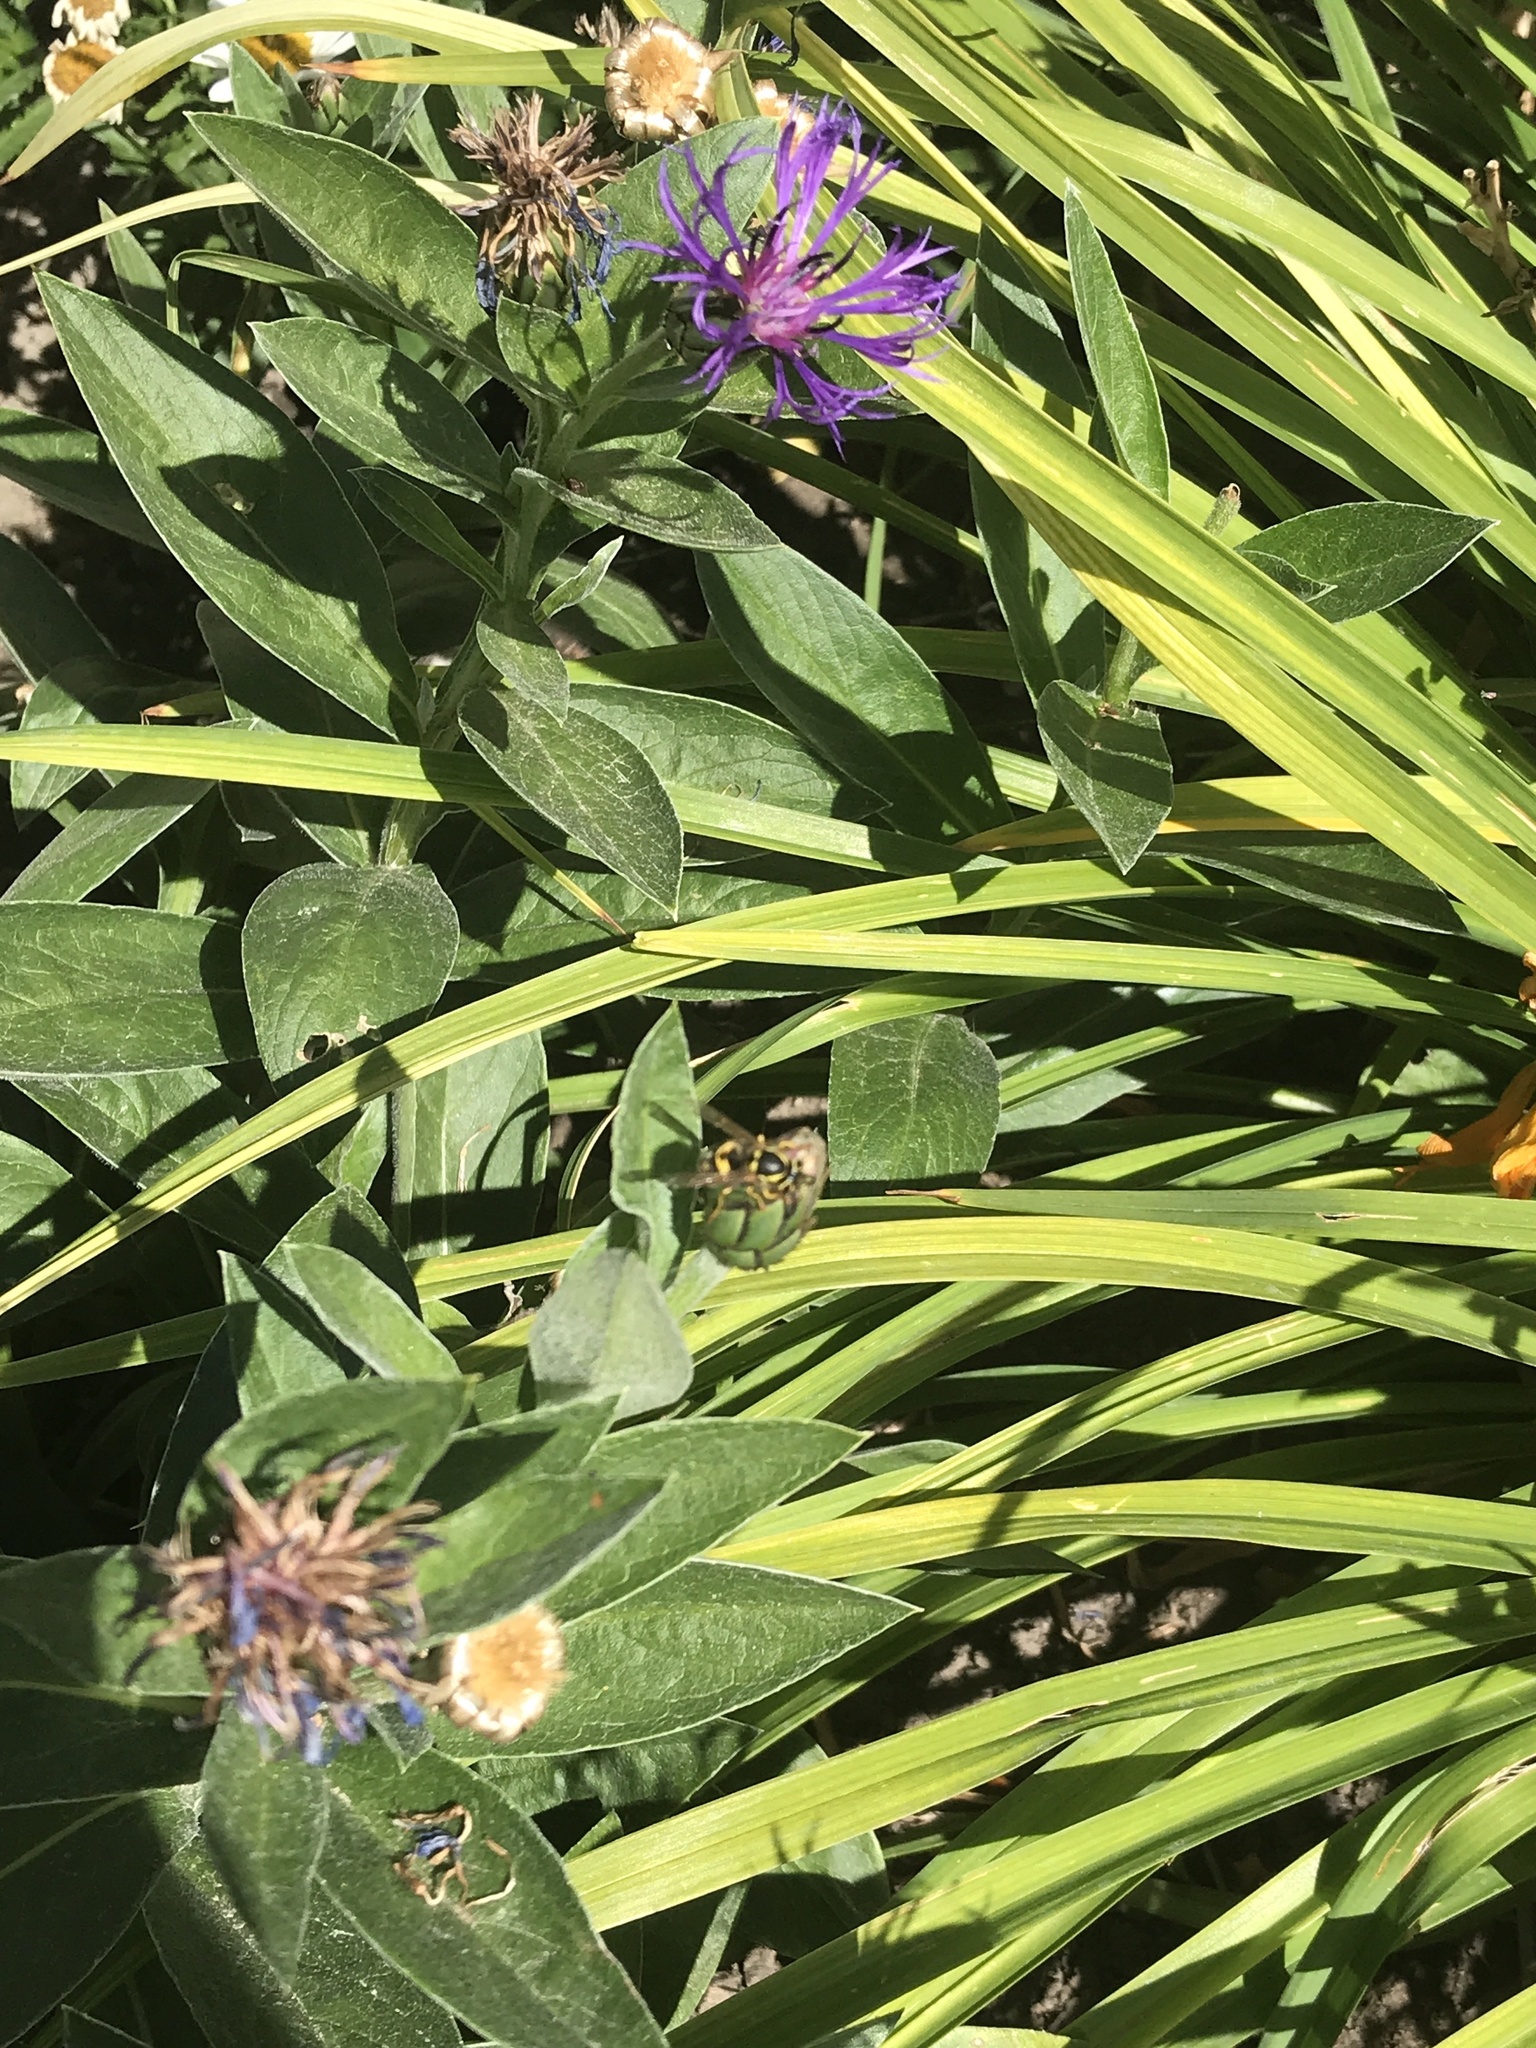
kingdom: Animalia
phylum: Arthropoda
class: Insecta
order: Hymenoptera
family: Vespidae
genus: Vespula
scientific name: Vespula pensylvanica
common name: Western yellowjacket
